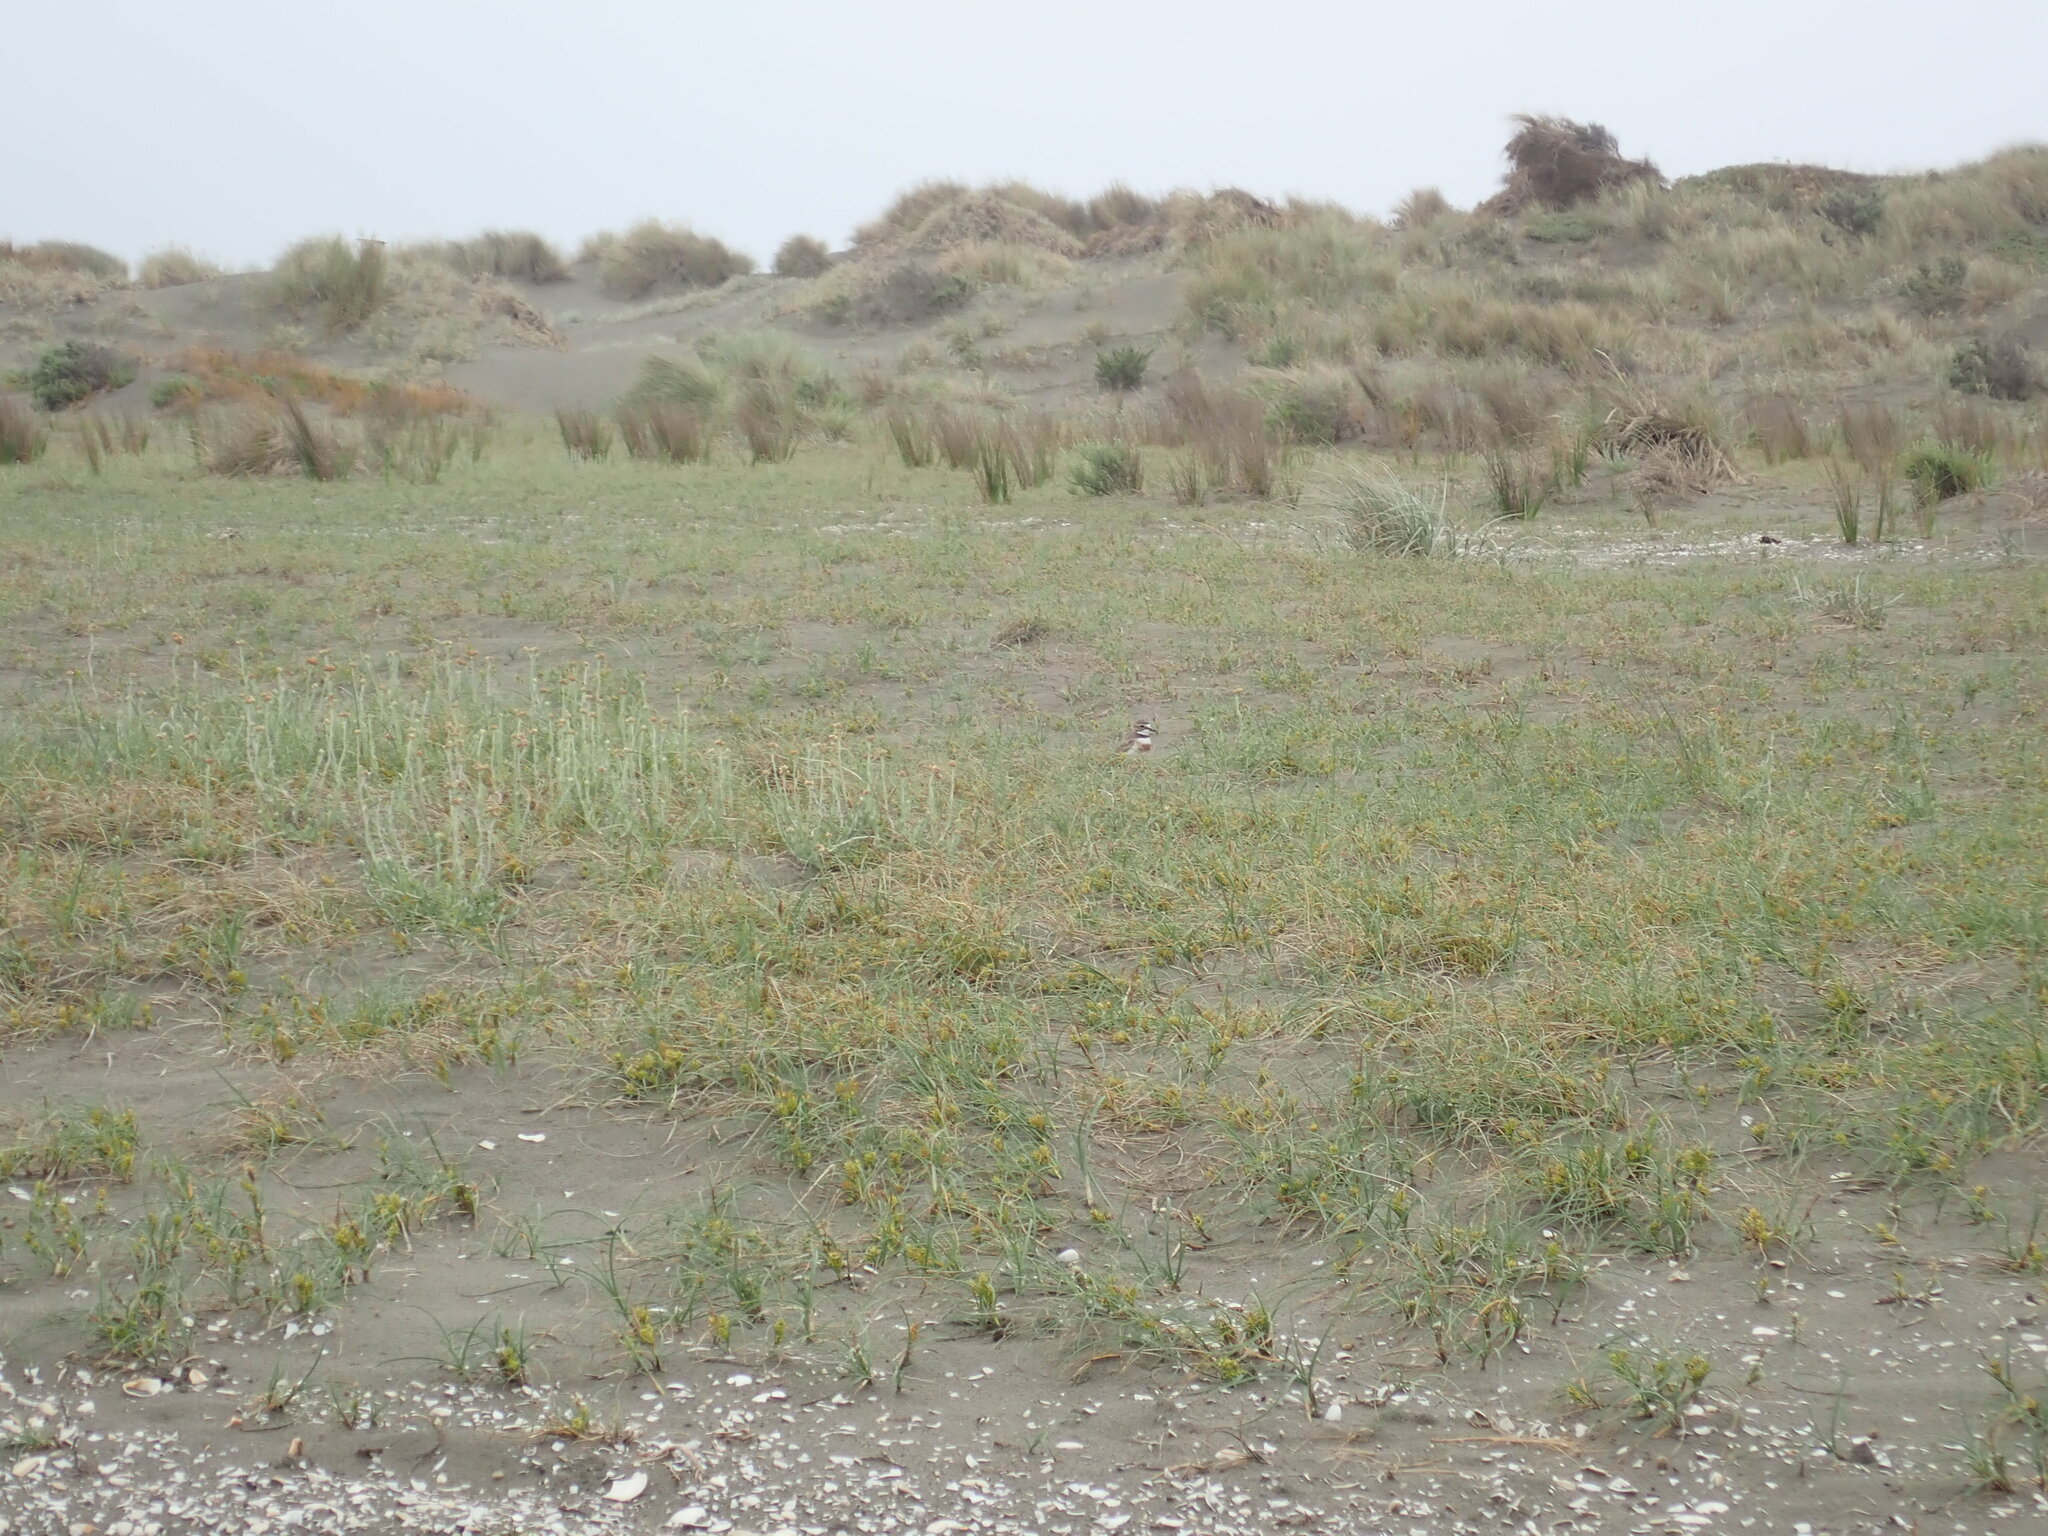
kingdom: Animalia
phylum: Chordata
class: Aves
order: Charadriiformes
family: Charadriidae
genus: Anarhynchus
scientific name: Anarhynchus
